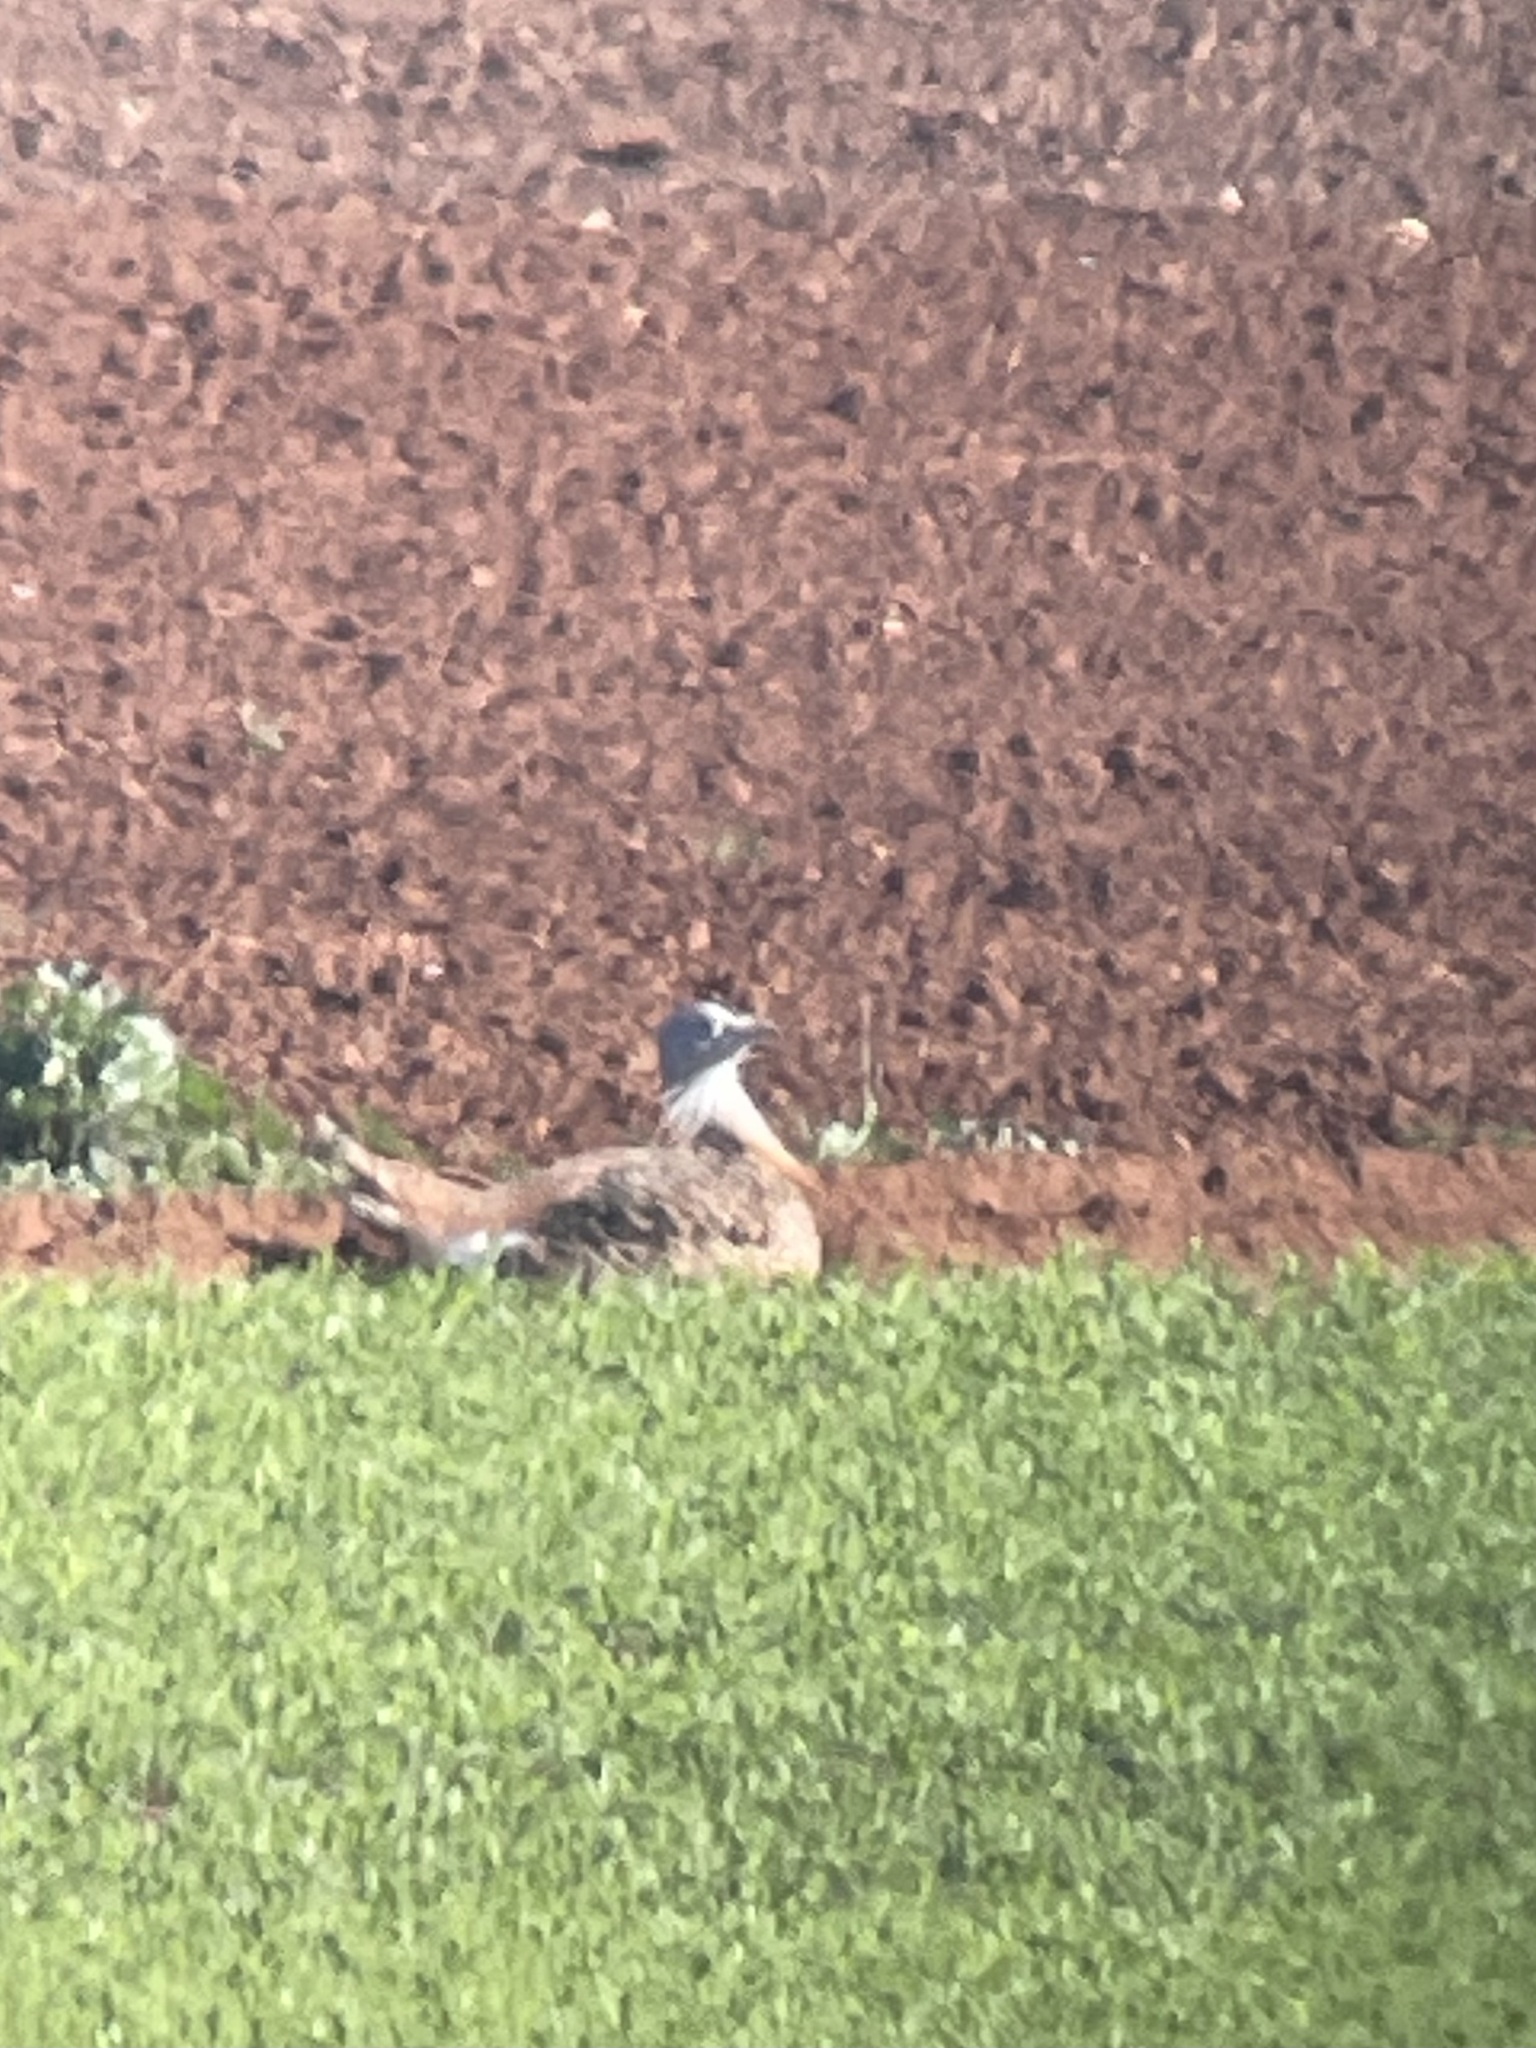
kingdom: Animalia
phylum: Chordata
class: Aves
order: Otidiformes
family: Otididae
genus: Otis
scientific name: Otis tarda
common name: Great bustard
